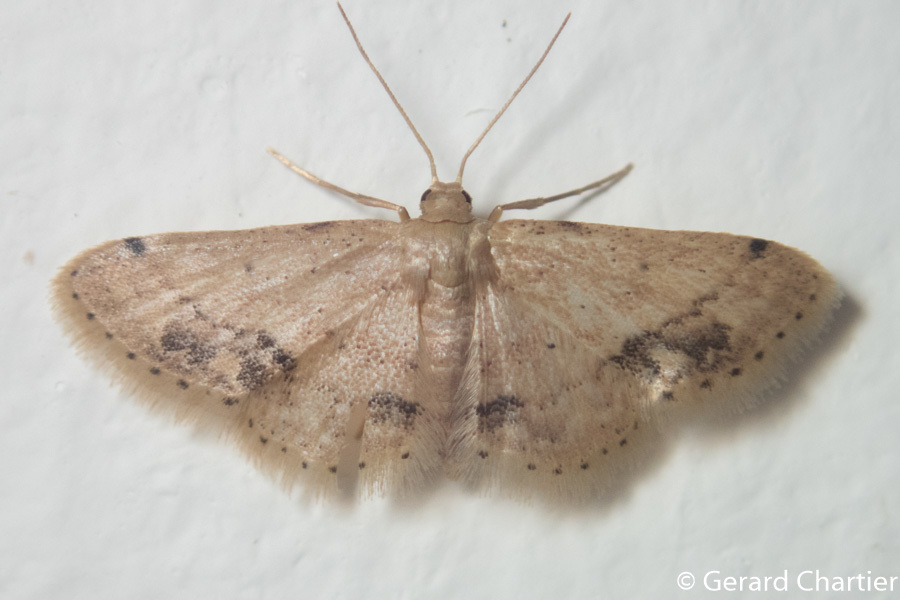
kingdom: Animalia
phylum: Arthropoda
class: Insecta
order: Lepidoptera
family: Geometridae
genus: Idaea
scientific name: Idaea chotaria
